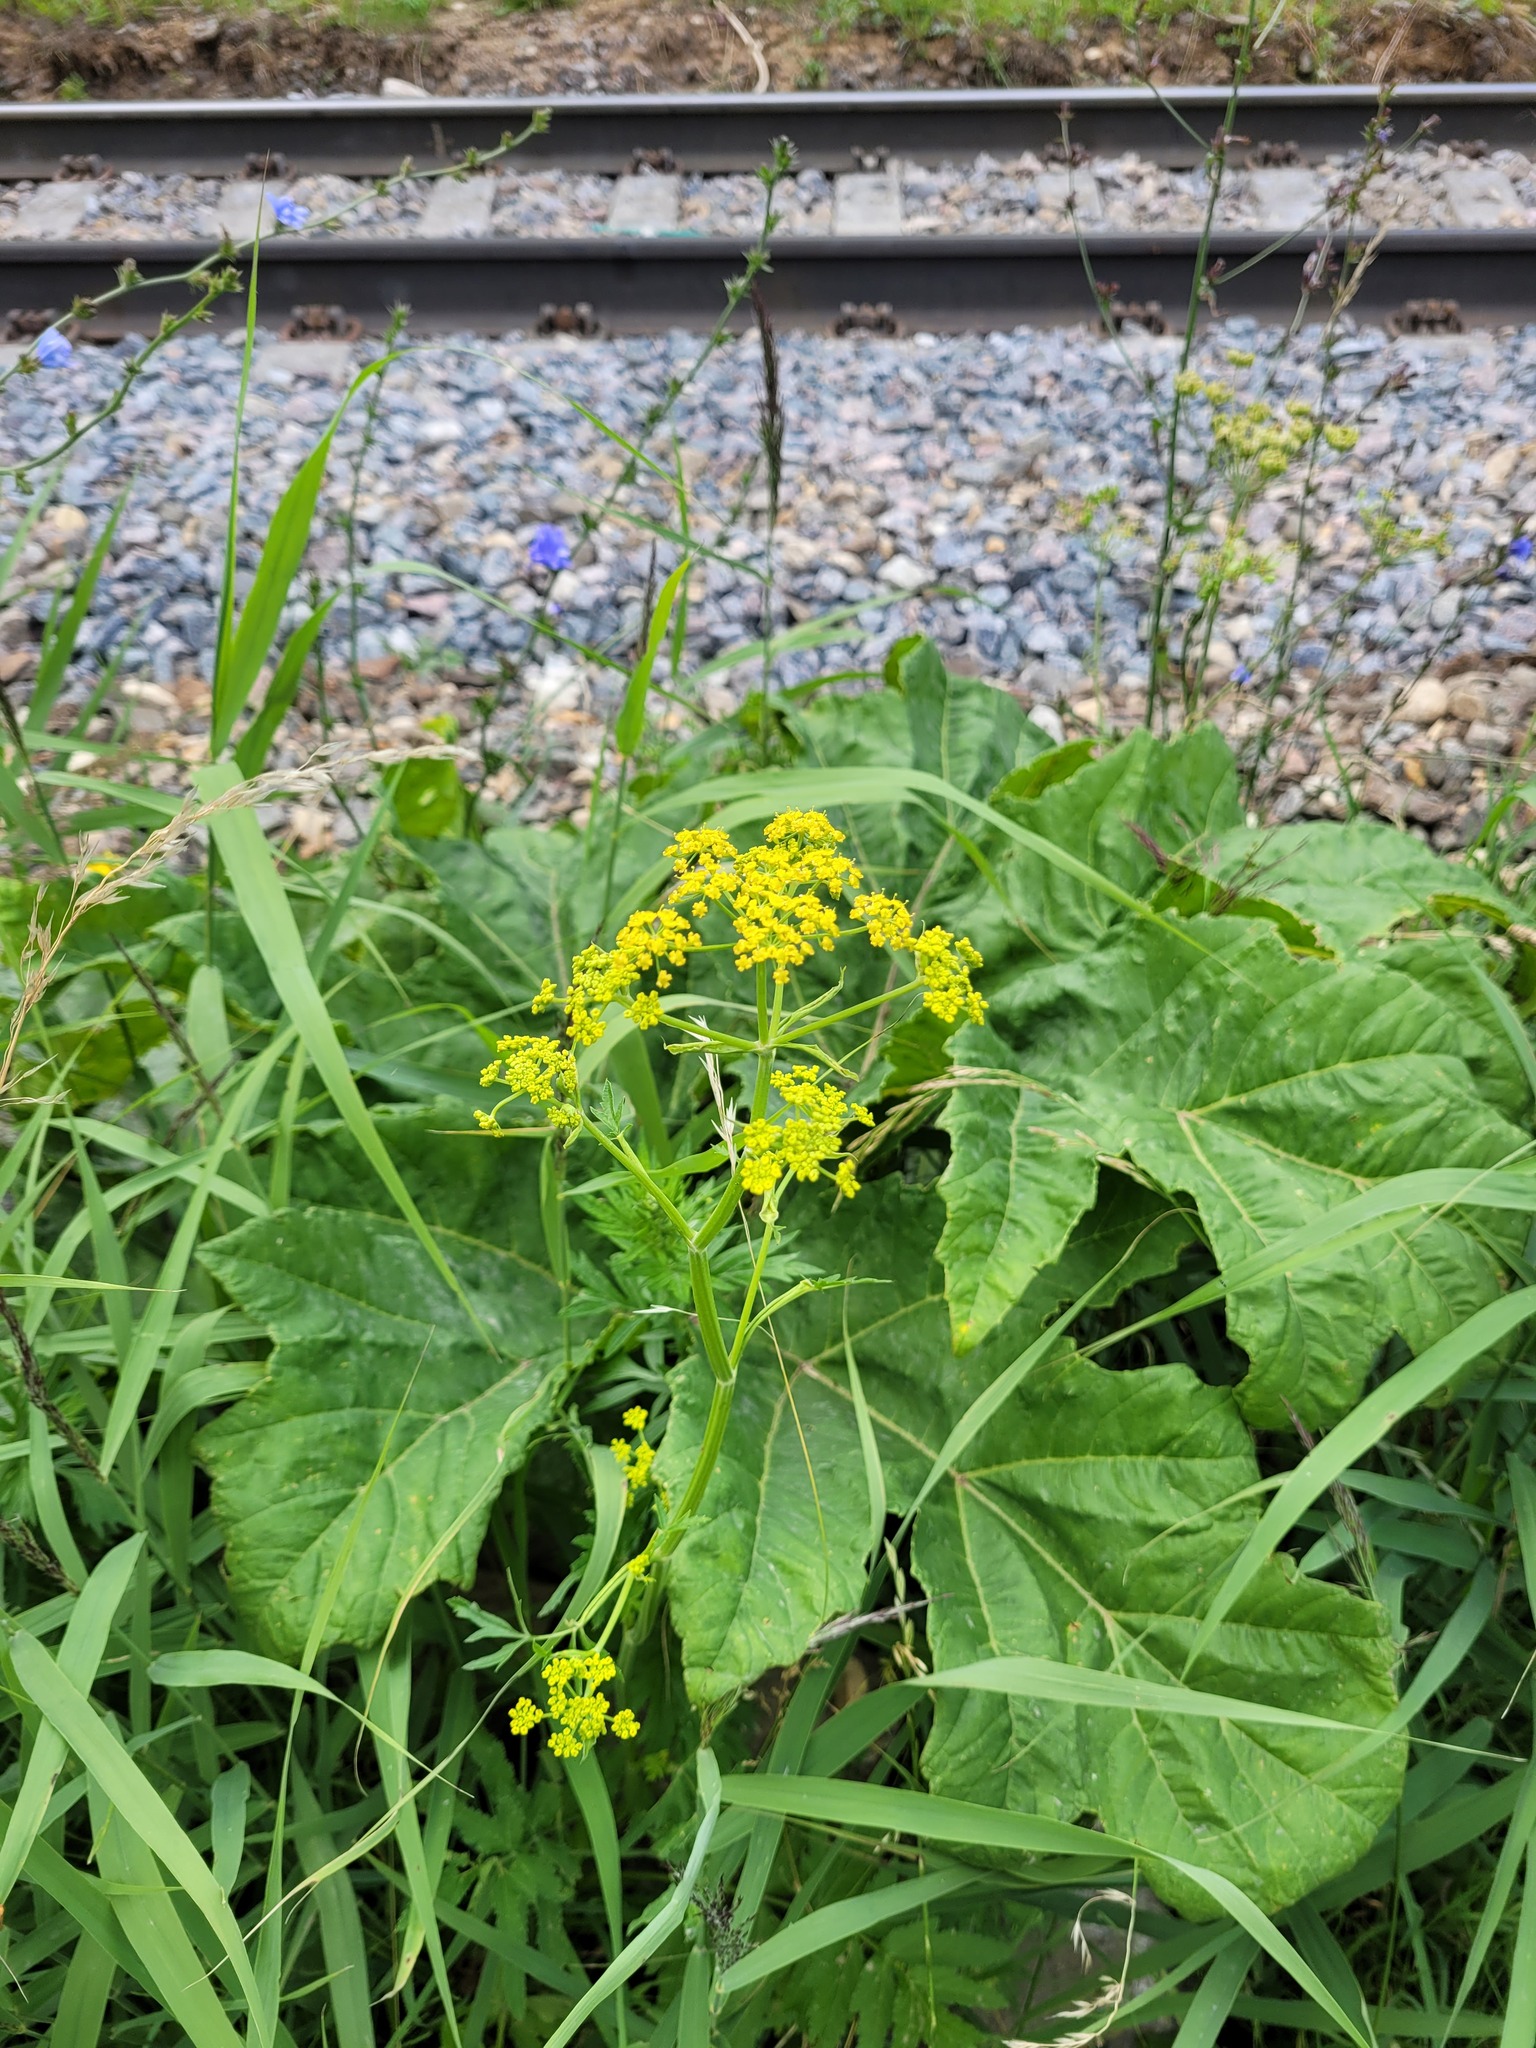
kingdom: Plantae
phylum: Tracheophyta
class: Magnoliopsida
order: Apiales
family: Apiaceae
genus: Pastinaca
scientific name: Pastinaca sativa
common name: Wild parsnip
